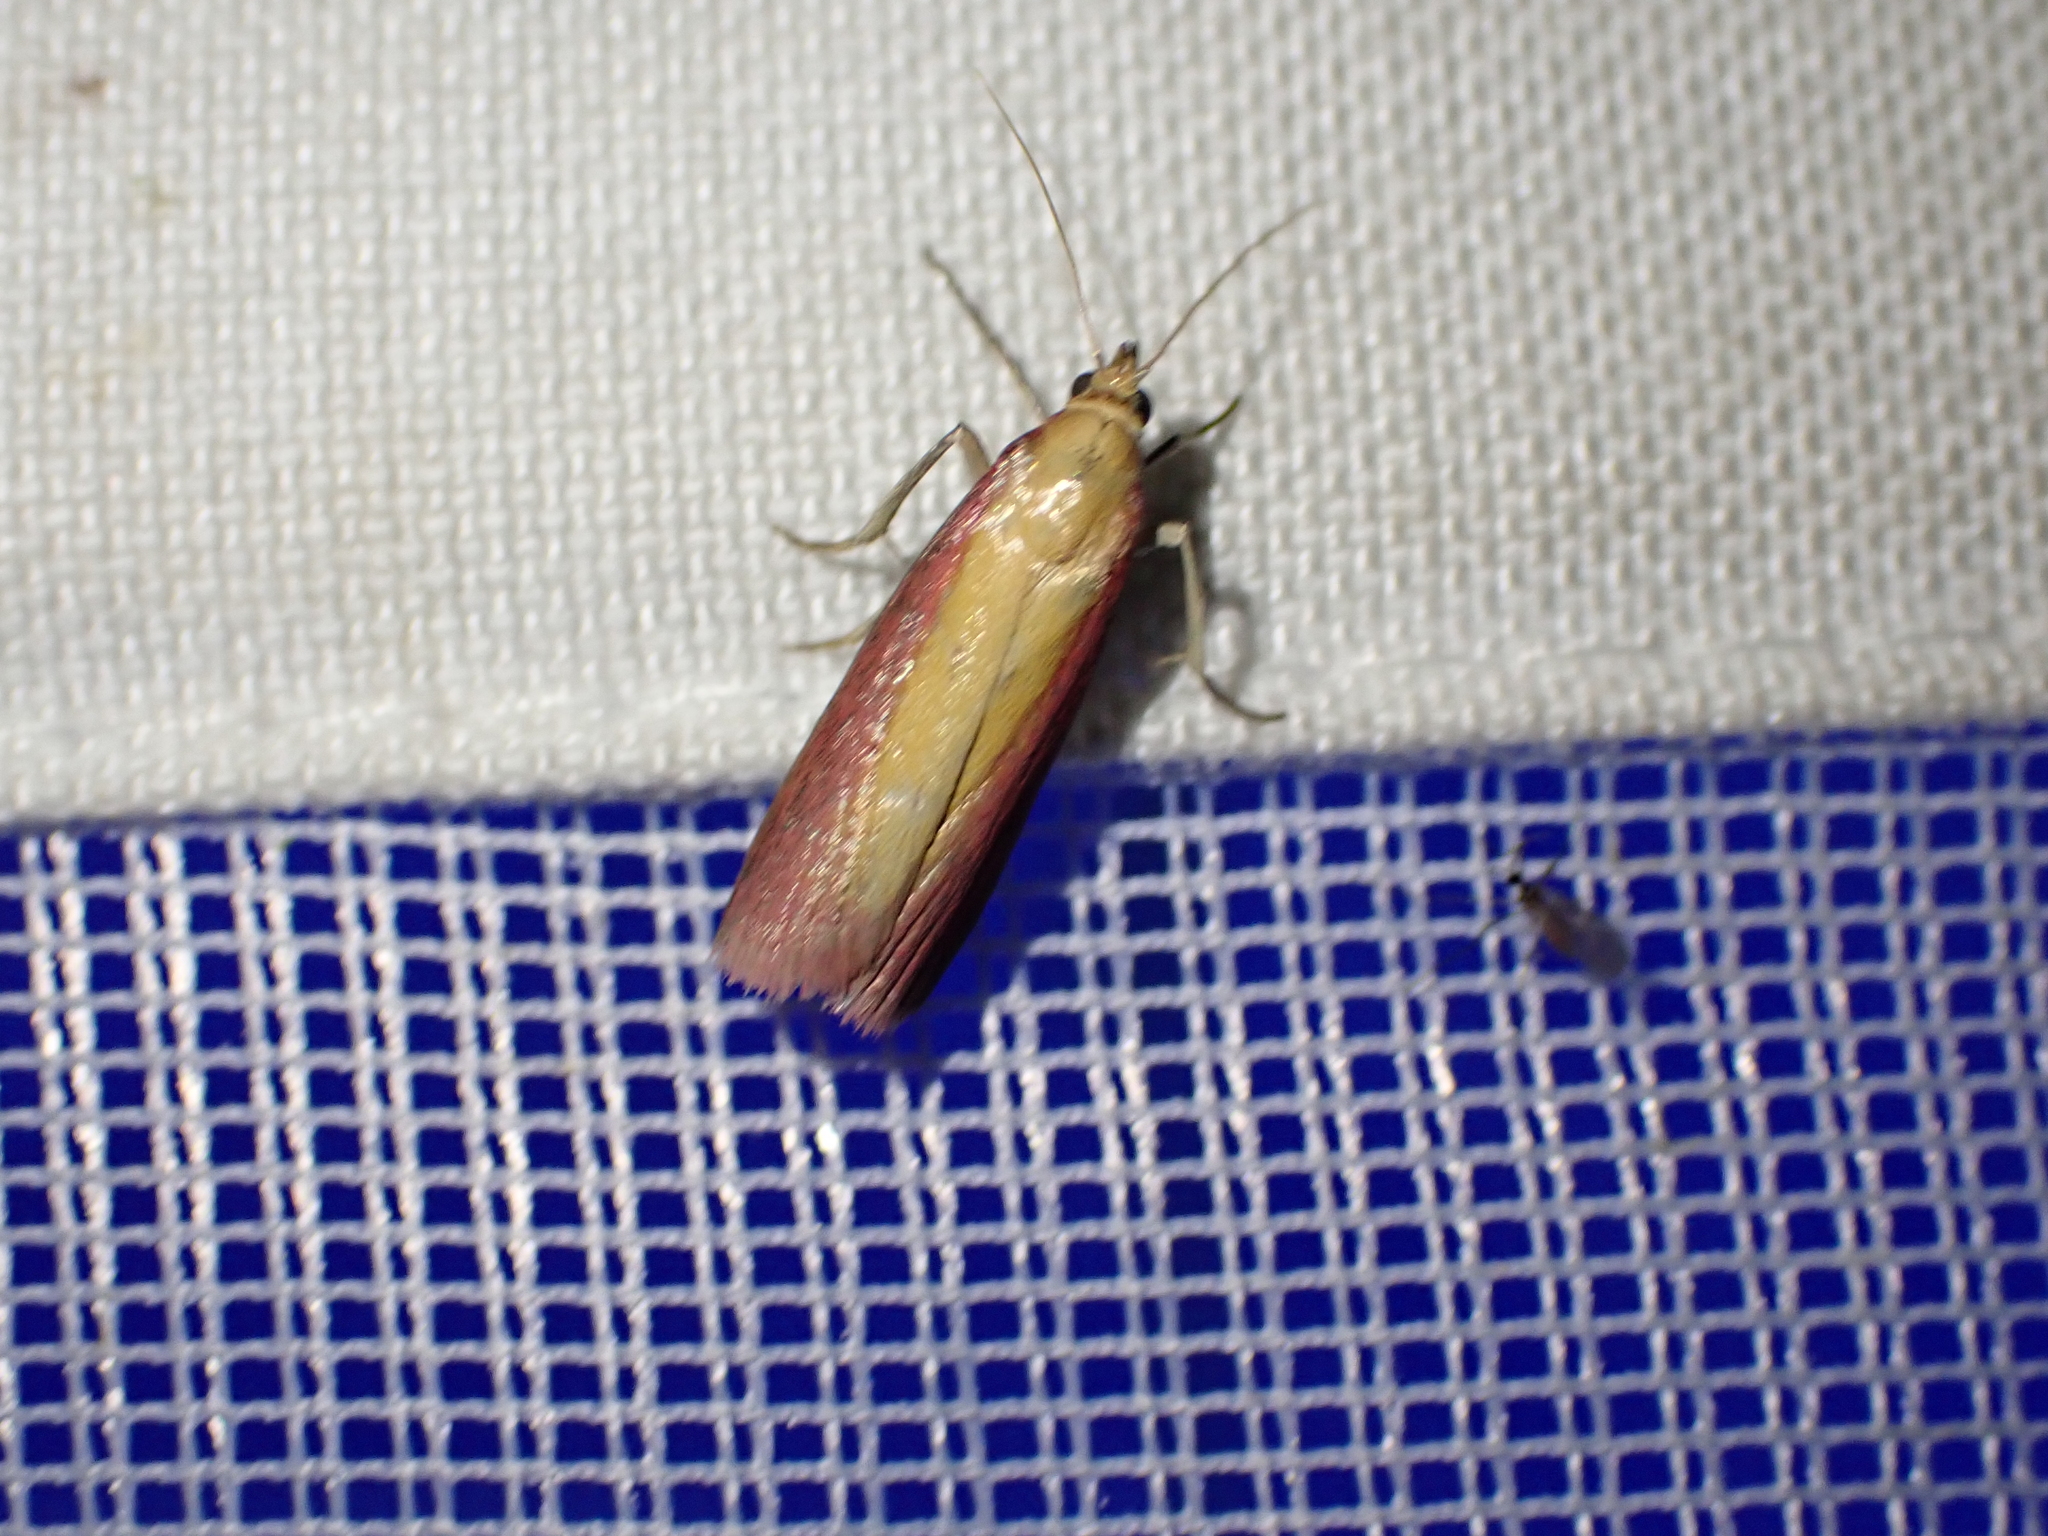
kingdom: Animalia
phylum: Arthropoda
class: Insecta
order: Lepidoptera
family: Pyralidae
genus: Oncocera
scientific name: Oncocera semirubella
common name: Rosy-striped knot-horn
